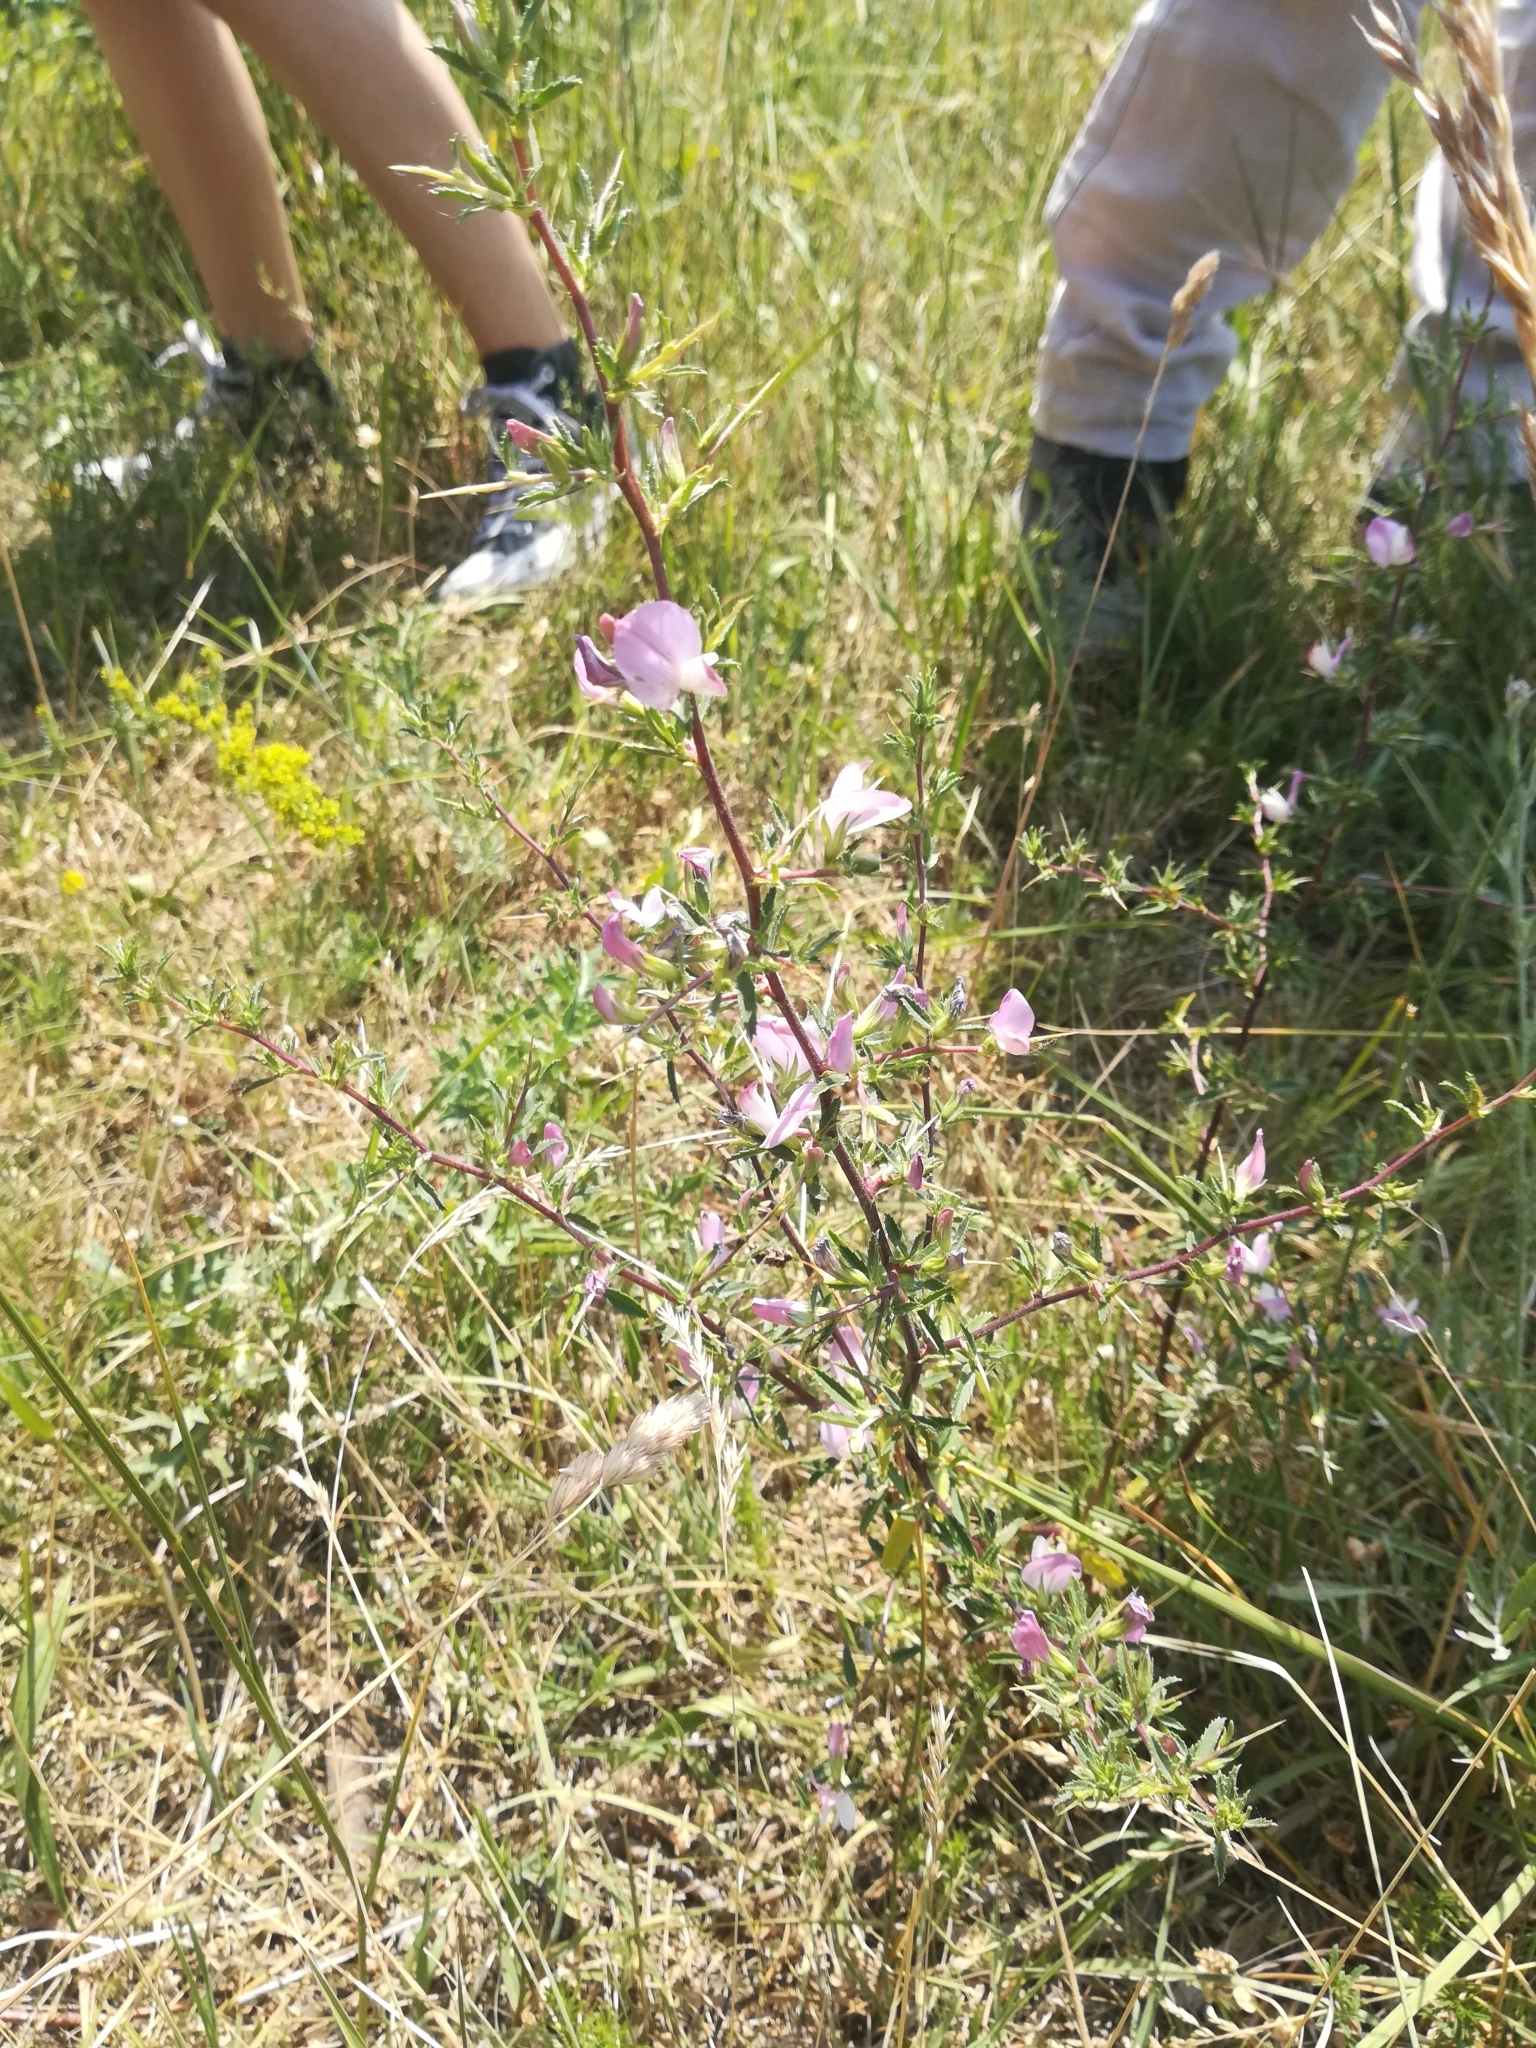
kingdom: Plantae
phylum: Tracheophyta
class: Magnoliopsida
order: Fabales
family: Fabaceae
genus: Ononis
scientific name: Ononis spinosa
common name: Spiny restharrow
